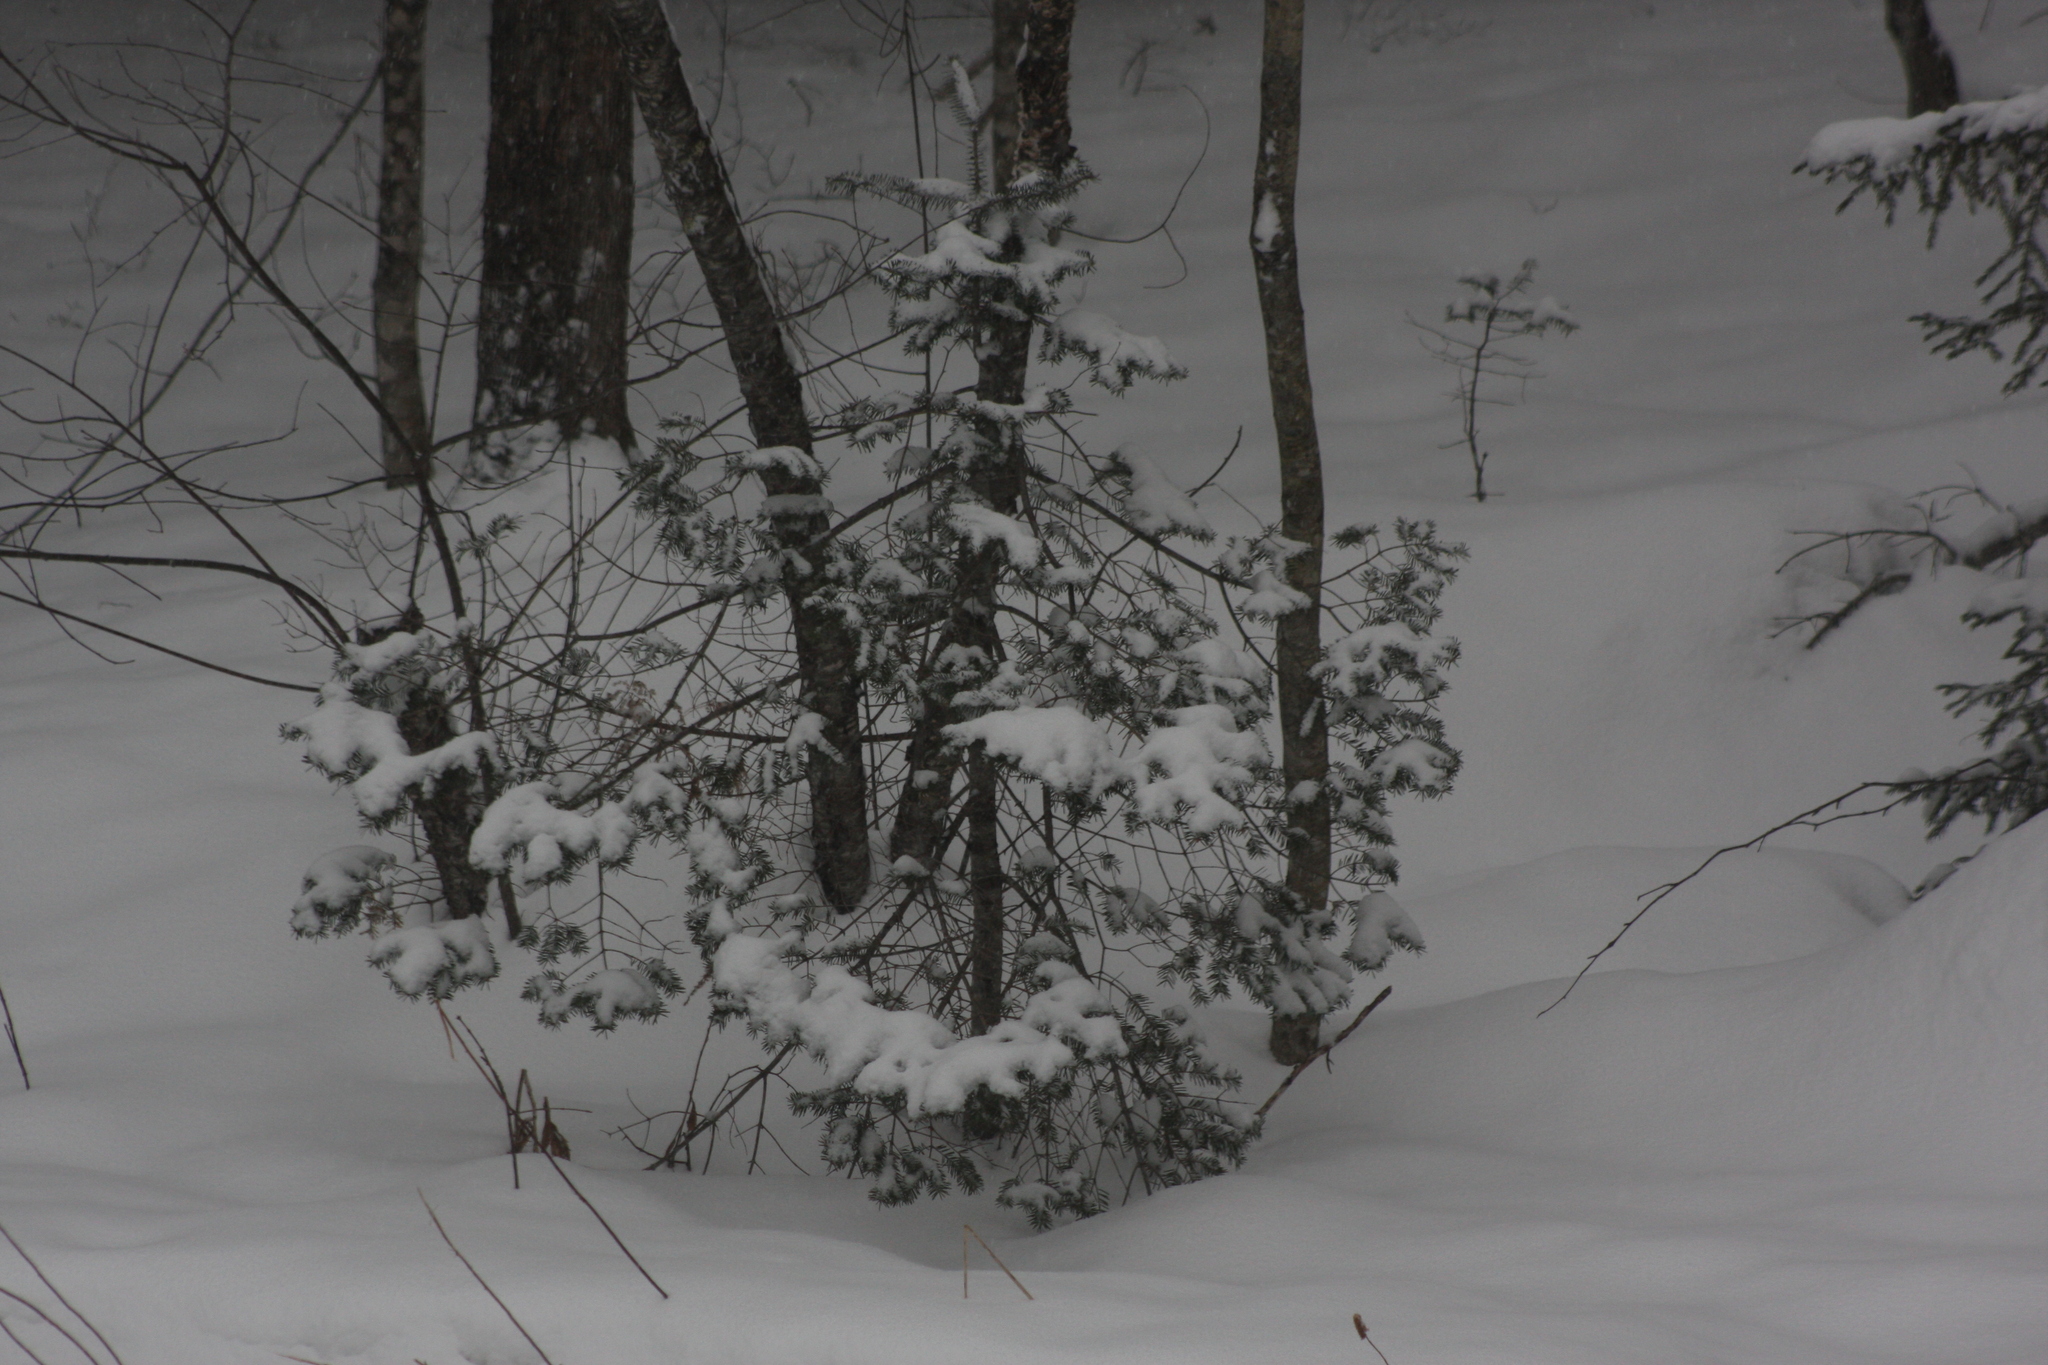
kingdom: Plantae
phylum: Tracheophyta
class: Pinopsida
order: Pinales
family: Pinaceae
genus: Abies
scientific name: Abies balsamea
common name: Balsam fir
